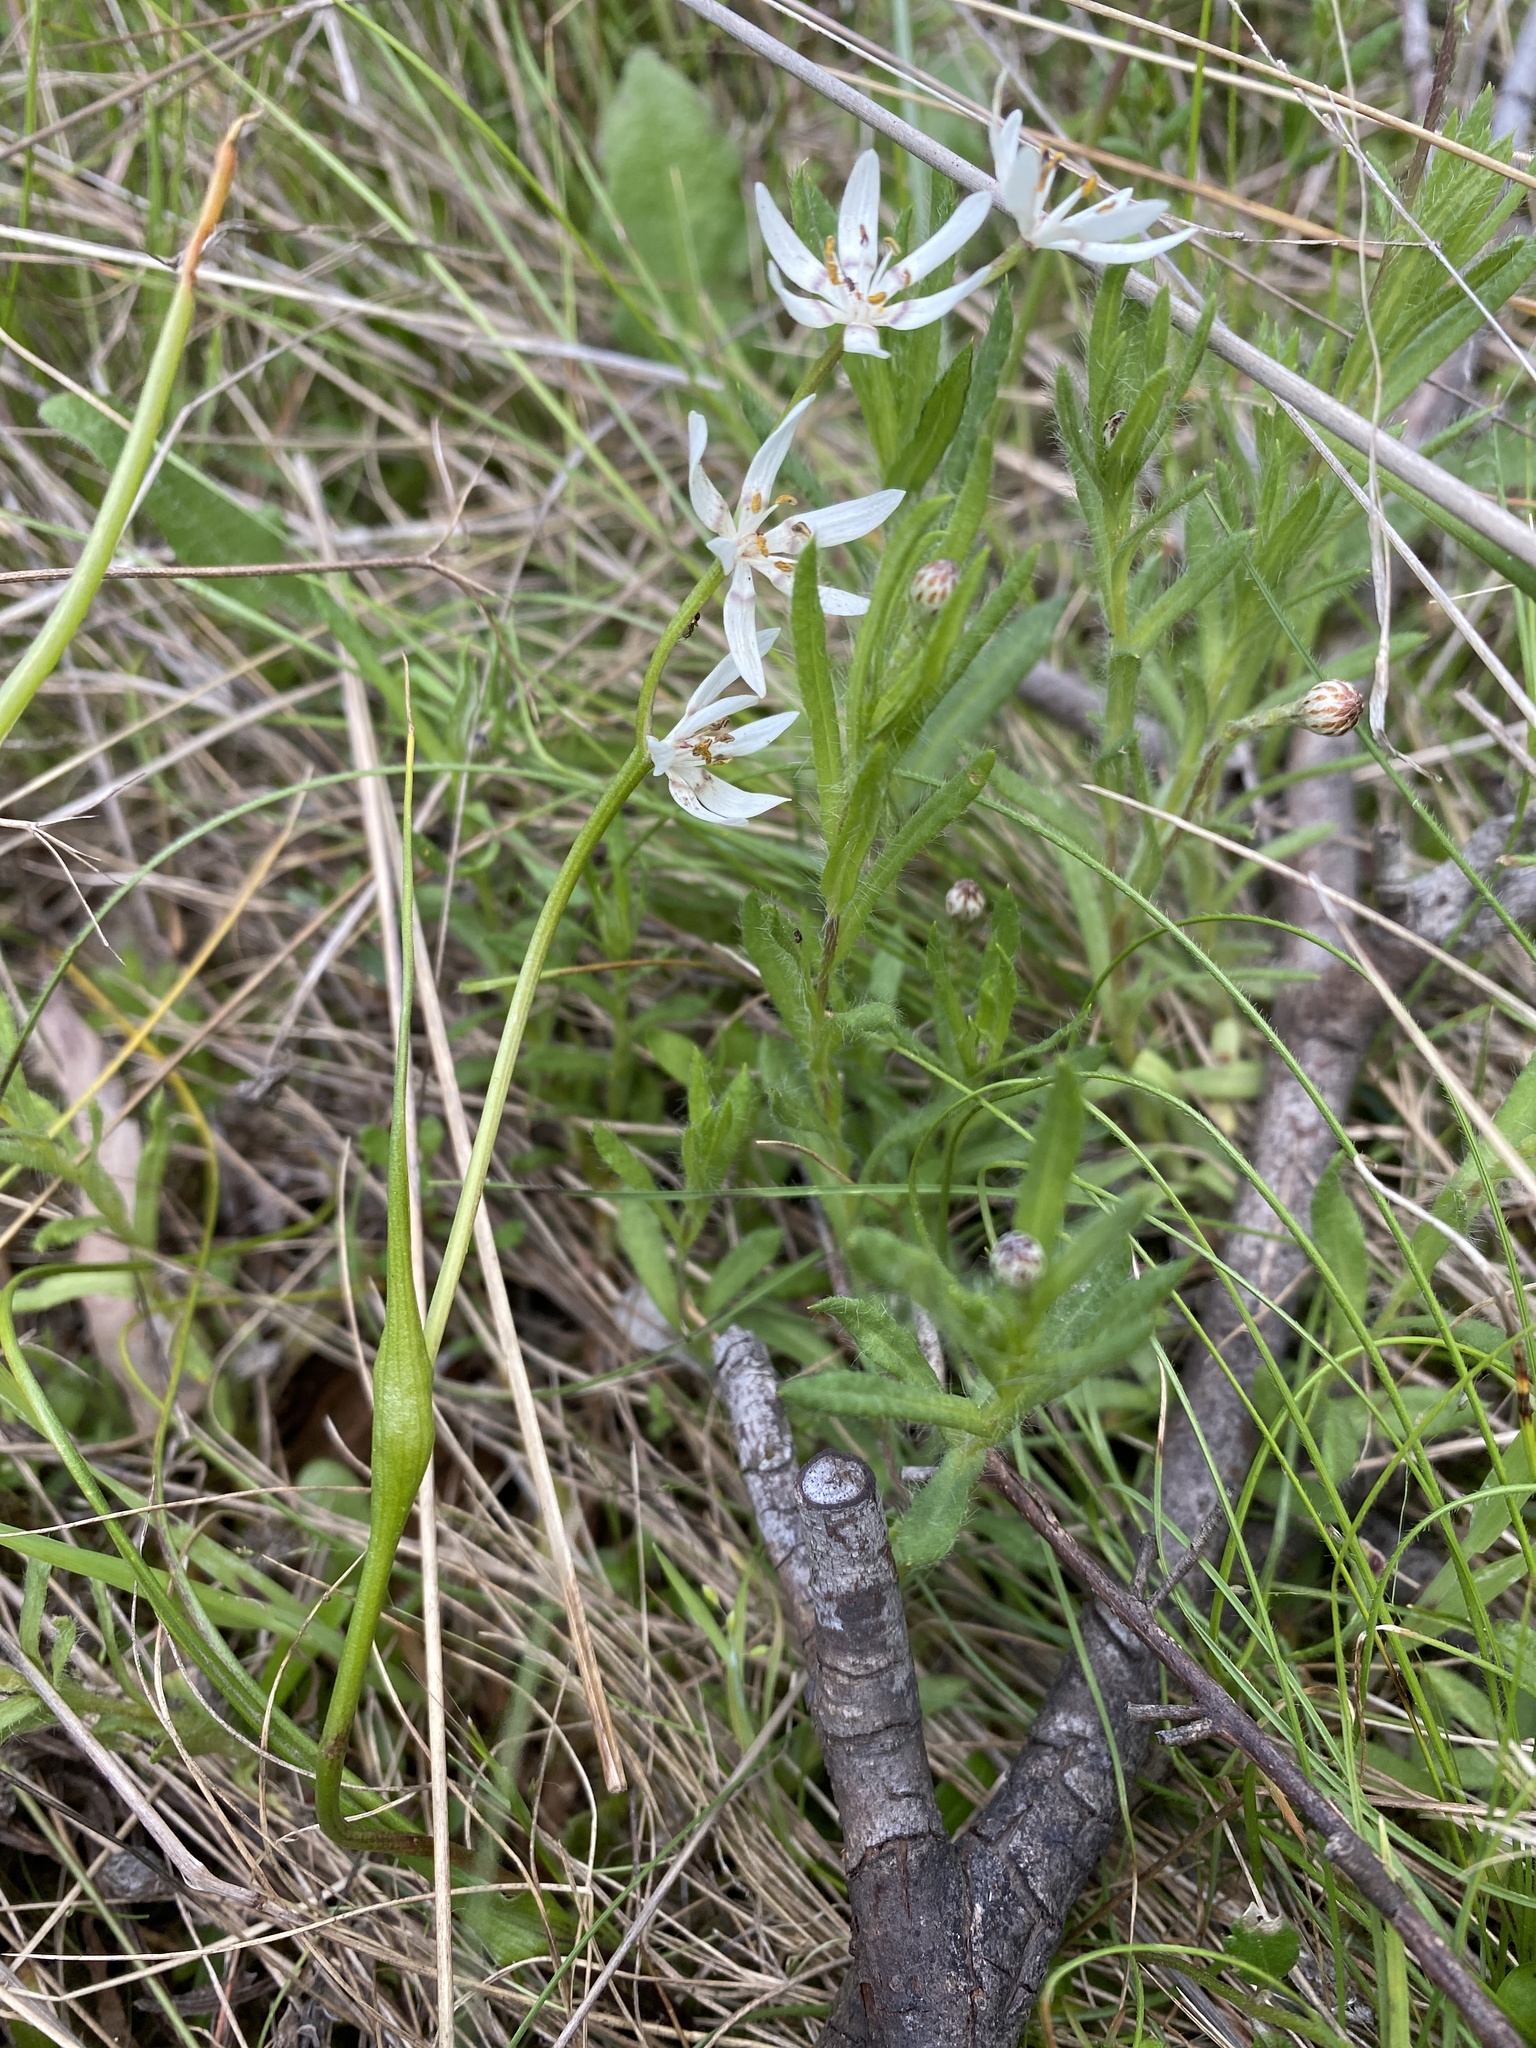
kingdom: Plantae
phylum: Tracheophyta
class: Liliopsida
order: Liliales
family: Colchicaceae
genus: Wurmbea
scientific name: Wurmbea dioica
